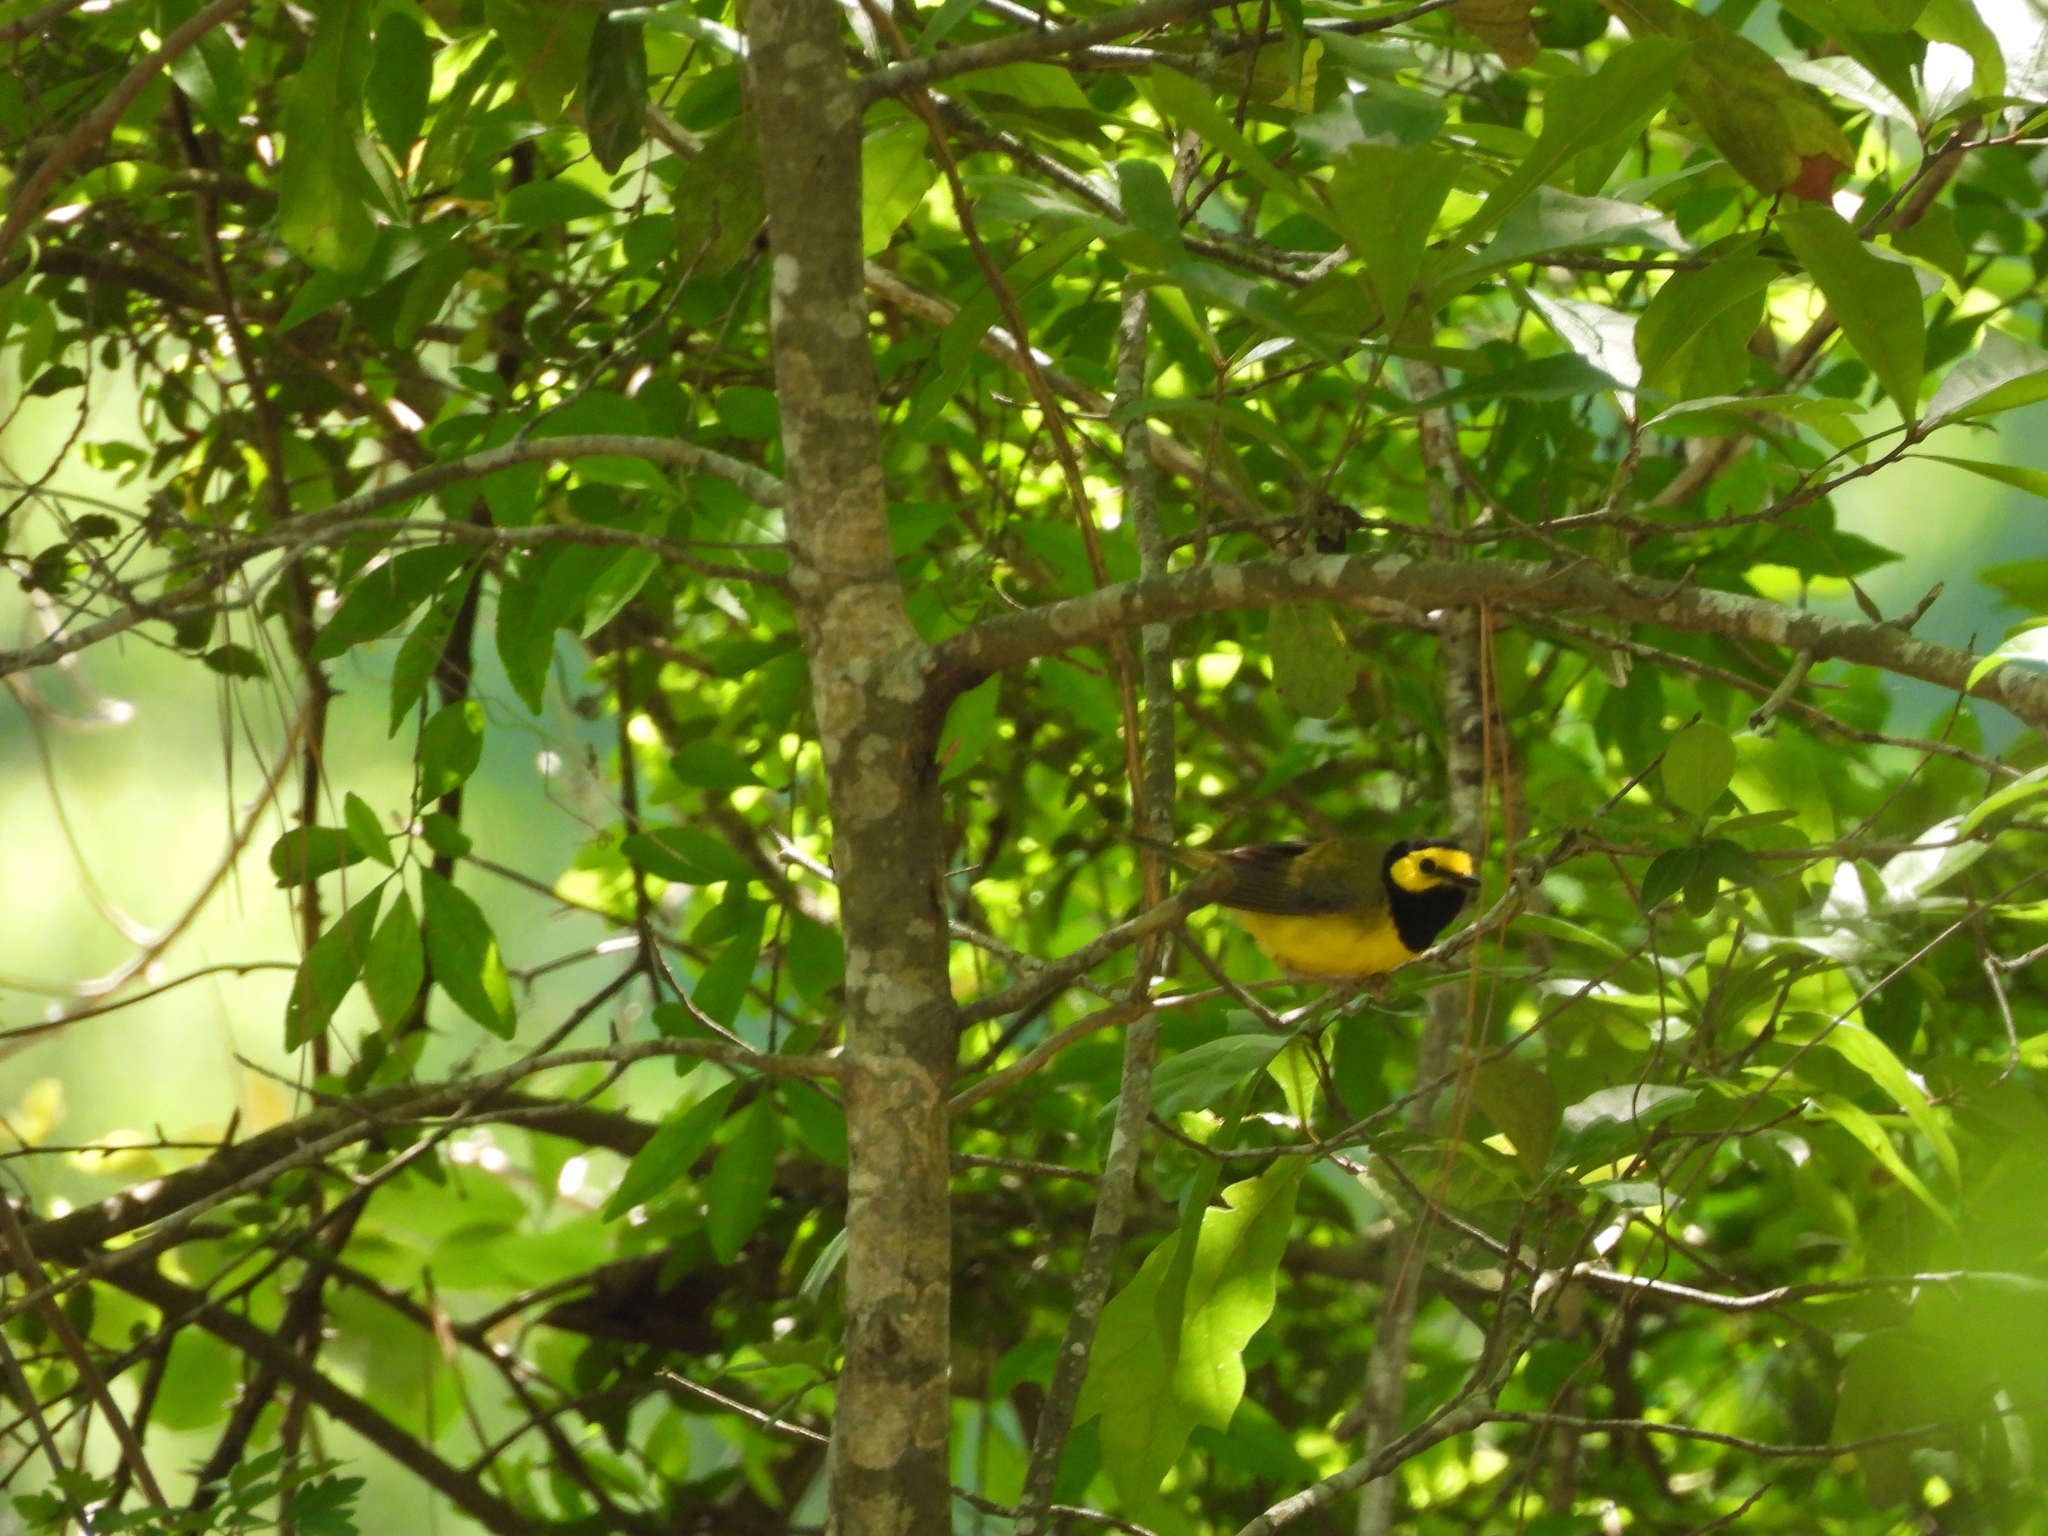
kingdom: Animalia
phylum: Chordata
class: Aves
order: Passeriformes
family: Parulidae
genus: Setophaga
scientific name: Setophaga citrina
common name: Hooded warbler
